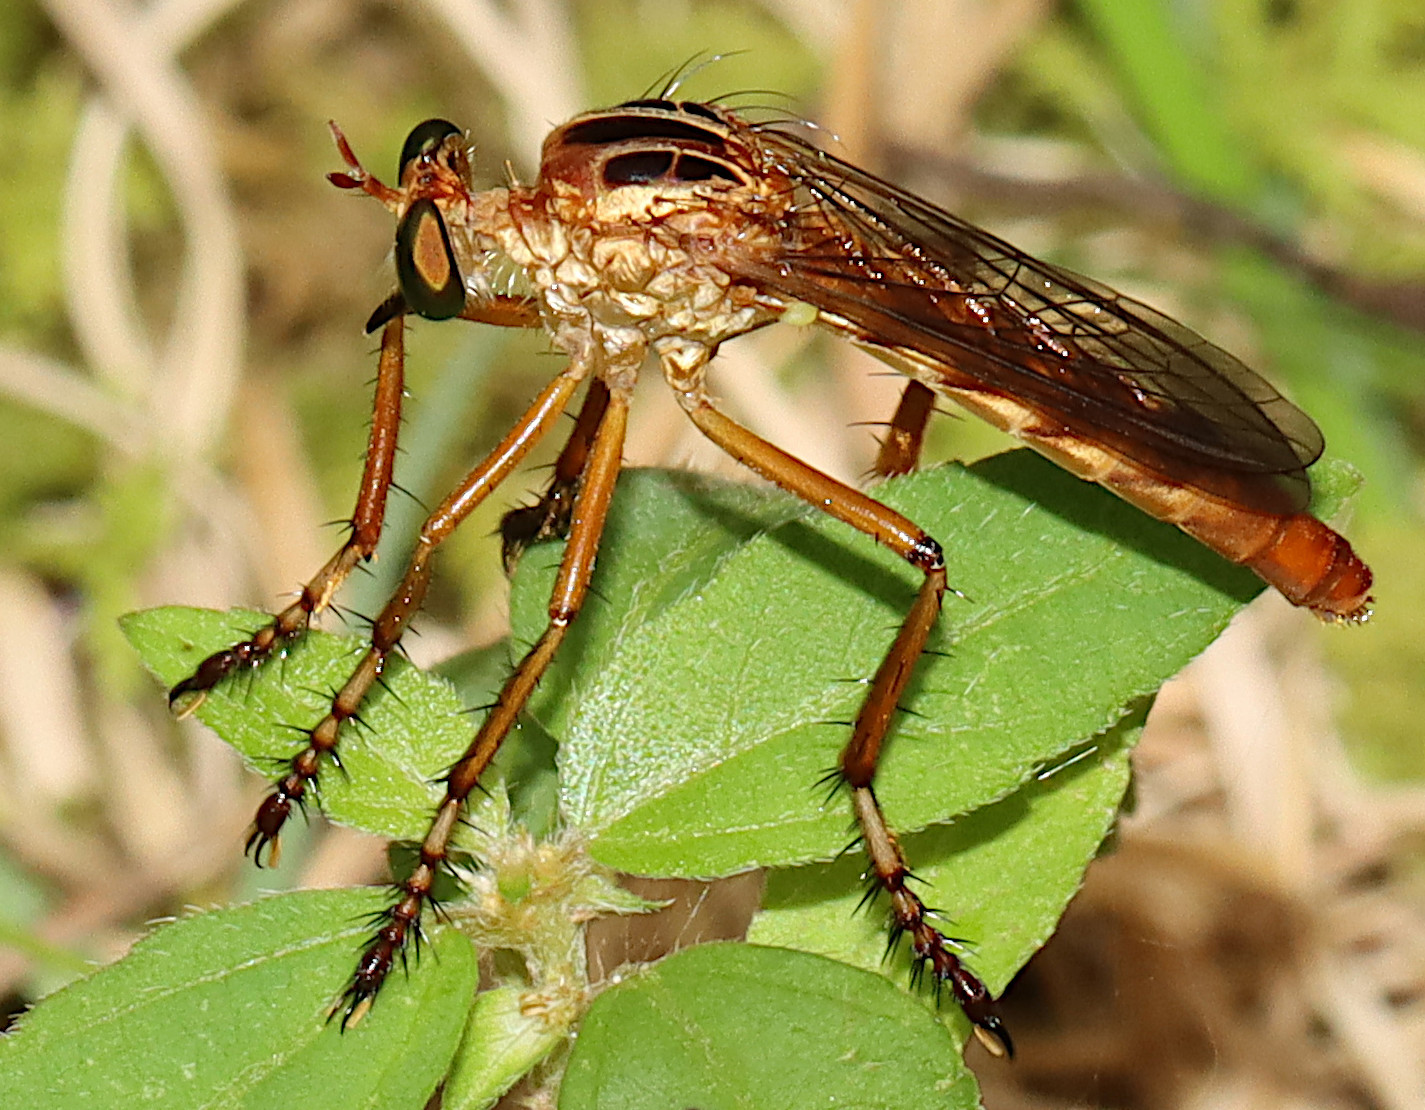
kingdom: Animalia
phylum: Arthropoda
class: Insecta
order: Diptera
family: Asilidae
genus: Diogmites
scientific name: Diogmites misellus
